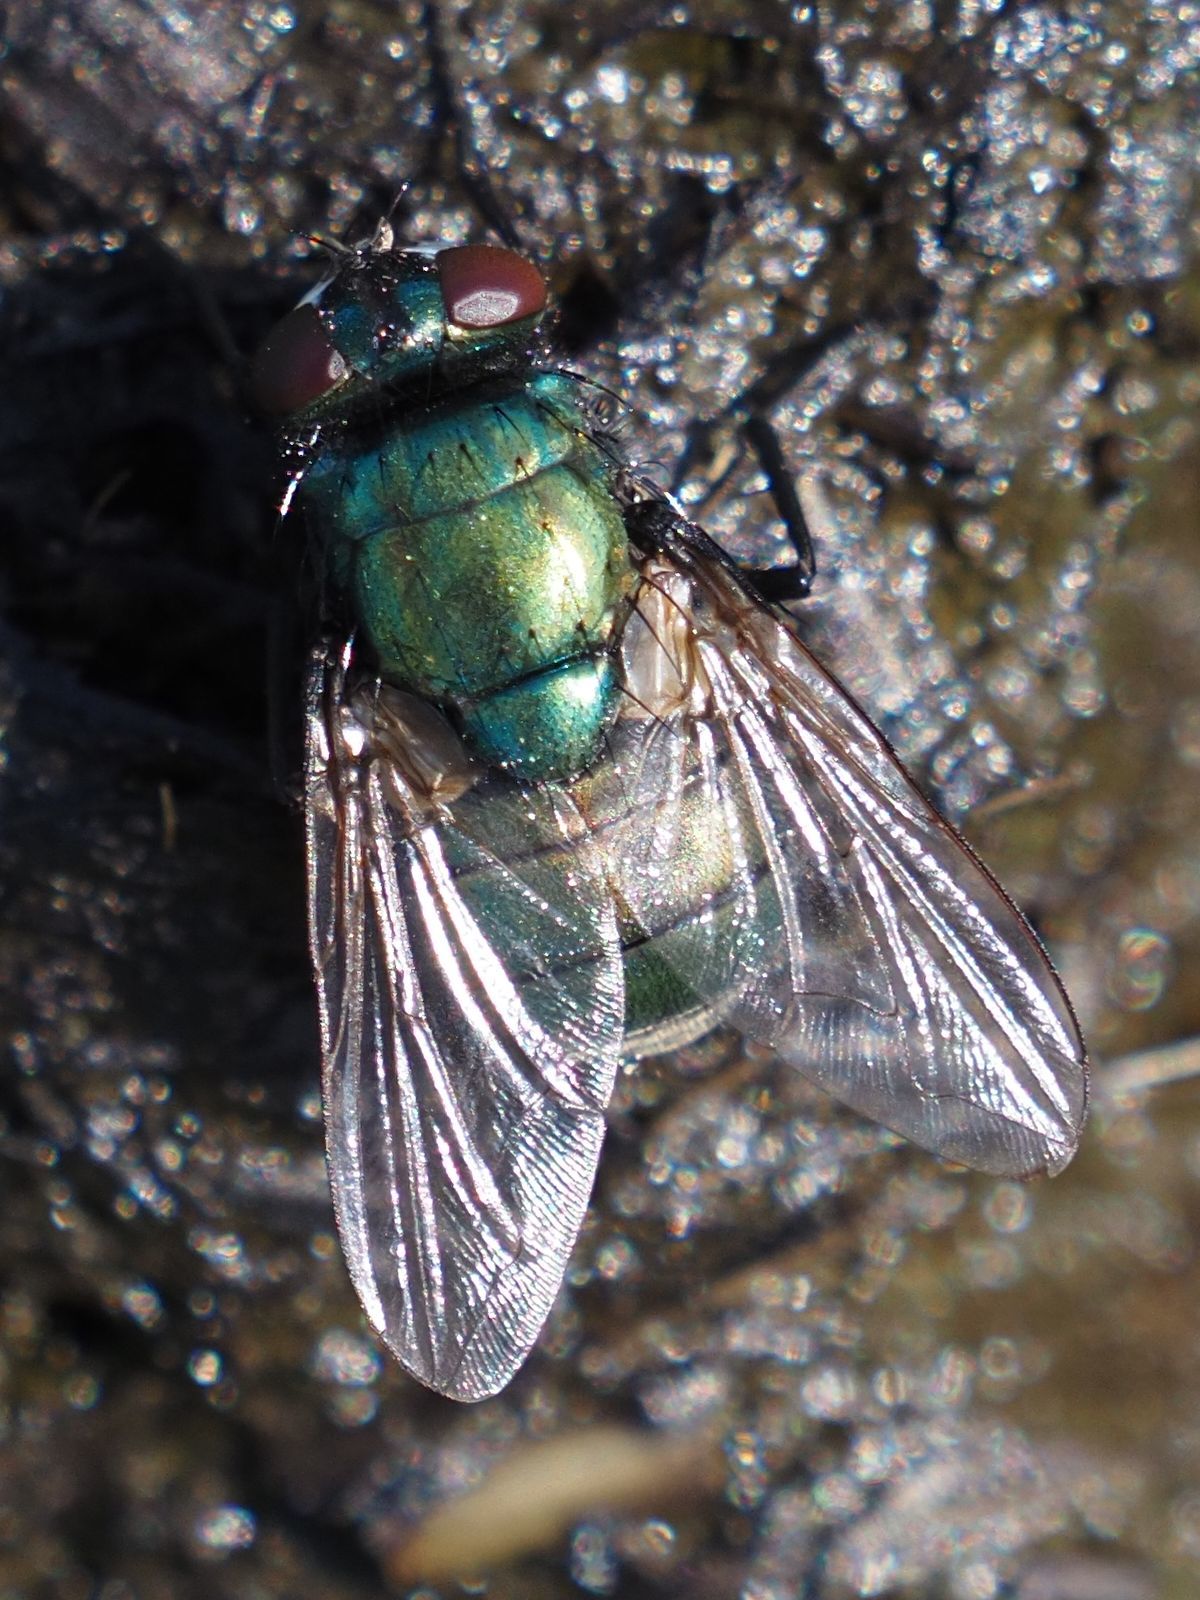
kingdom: Animalia
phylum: Arthropoda
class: Insecta
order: Diptera
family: Muscidae
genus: Neomyia
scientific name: Neomyia cornicina
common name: House fly
